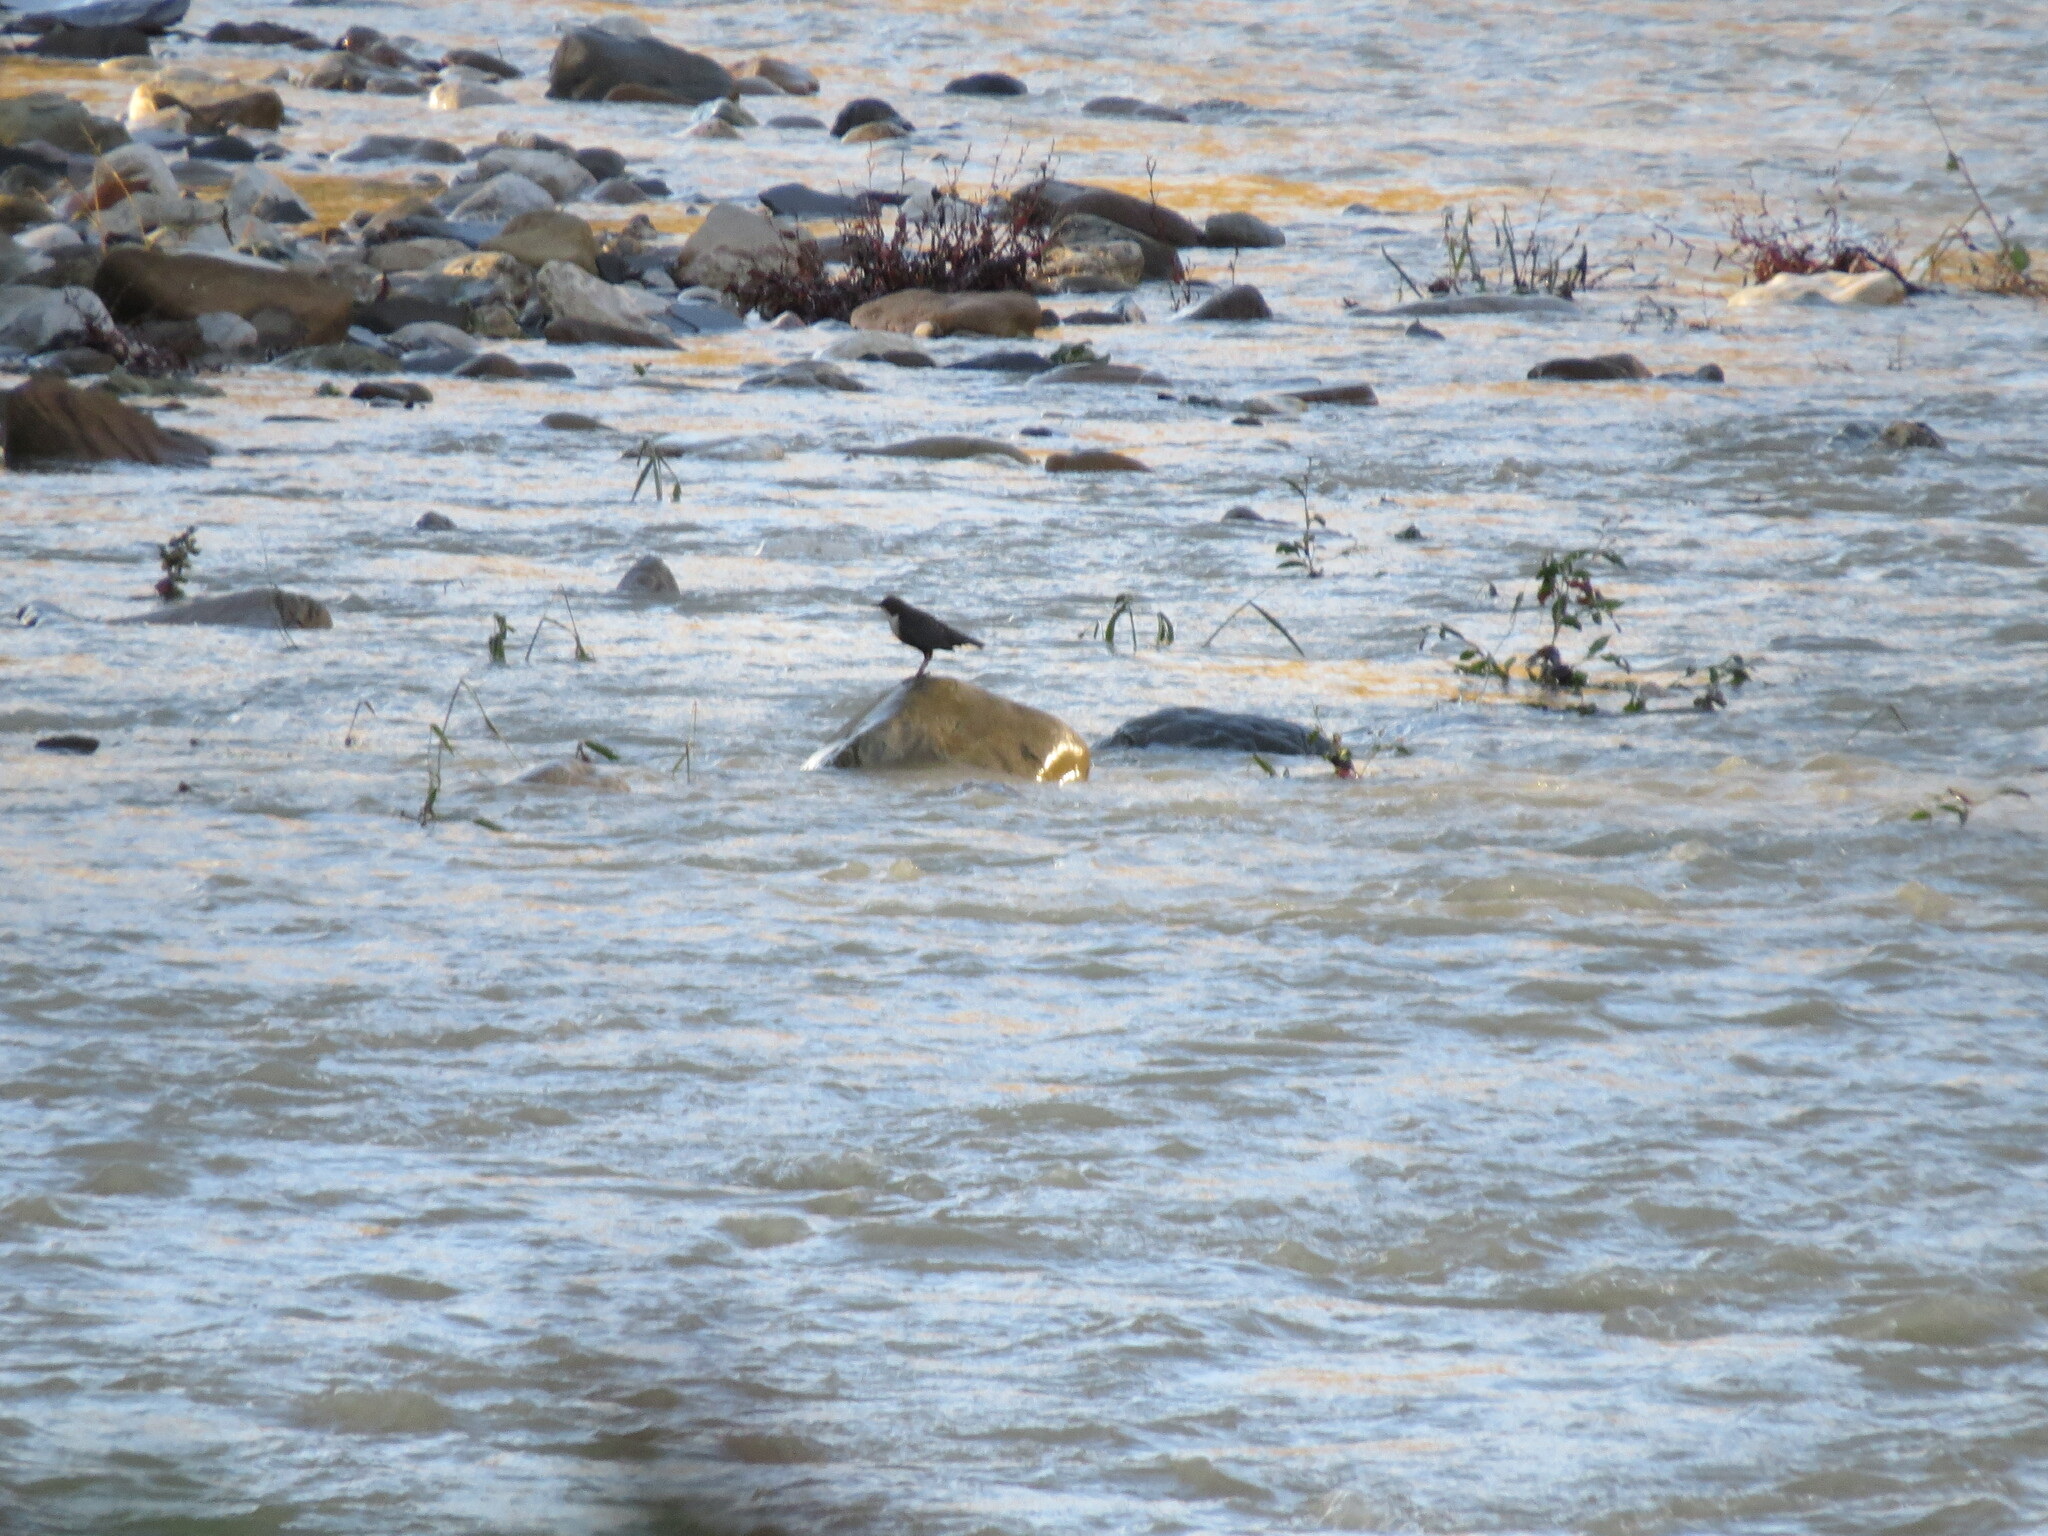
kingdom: Animalia
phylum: Chordata
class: Aves
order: Passeriformes
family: Cinclidae
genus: Cinclus
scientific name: Cinclus cinclus
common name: White-throated dipper
